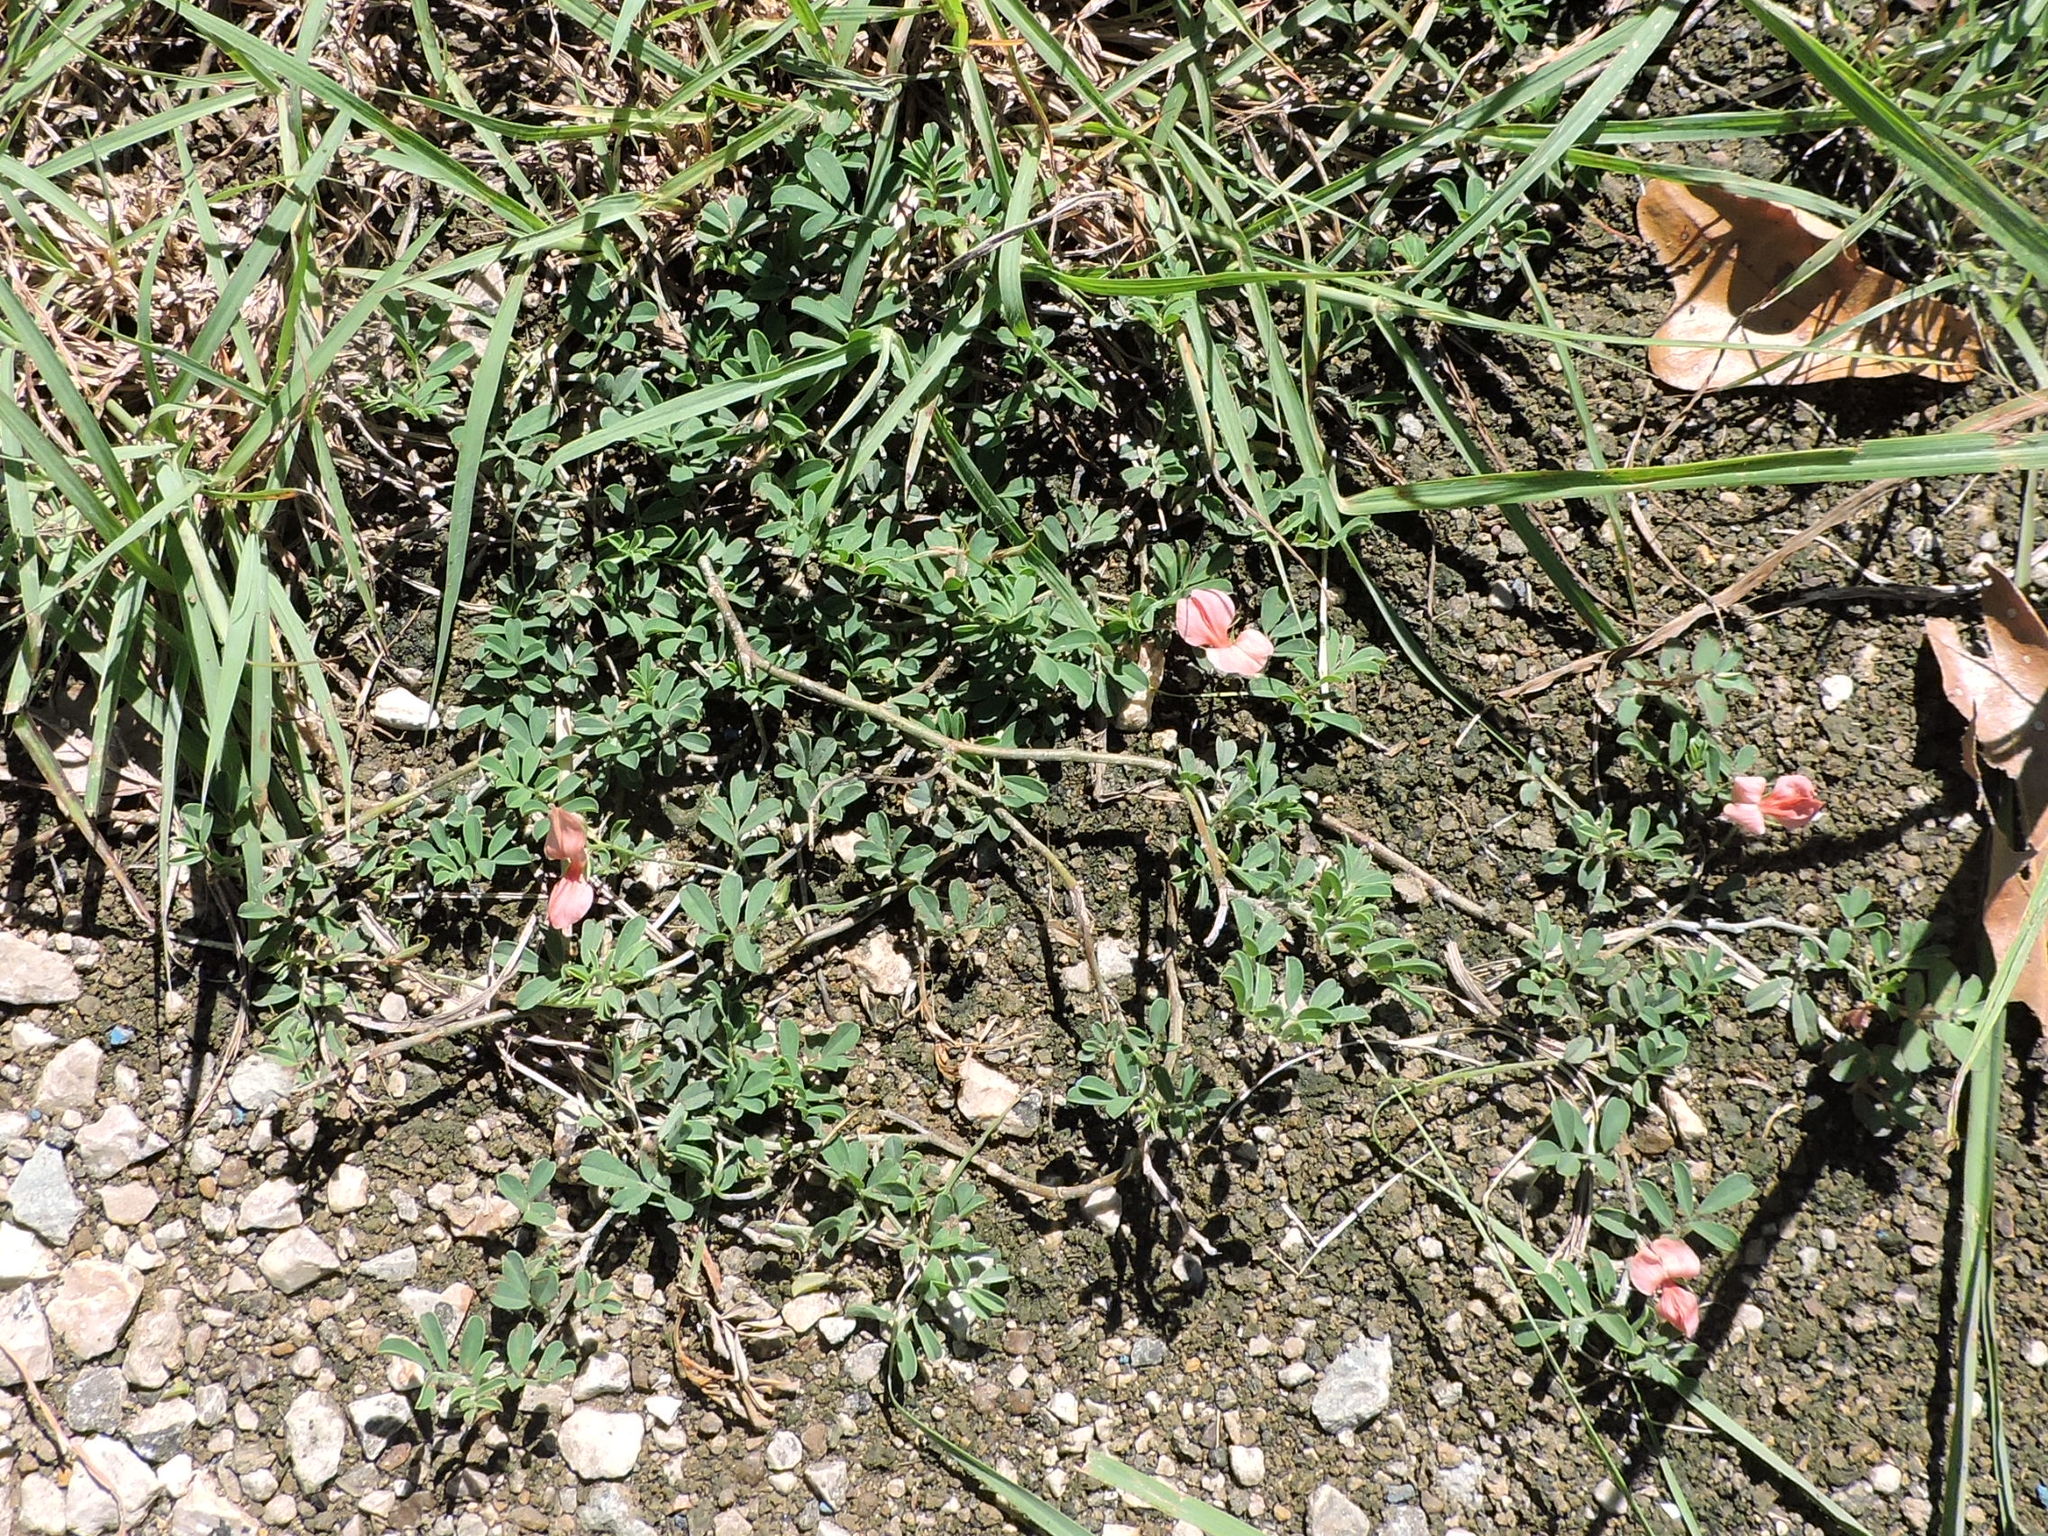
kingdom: Plantae
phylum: Tracheophyta
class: Magnoliopsida
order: Fabales
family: Fabaceae
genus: Indigofera
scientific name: Indigofera miniata
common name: Coast indigo
